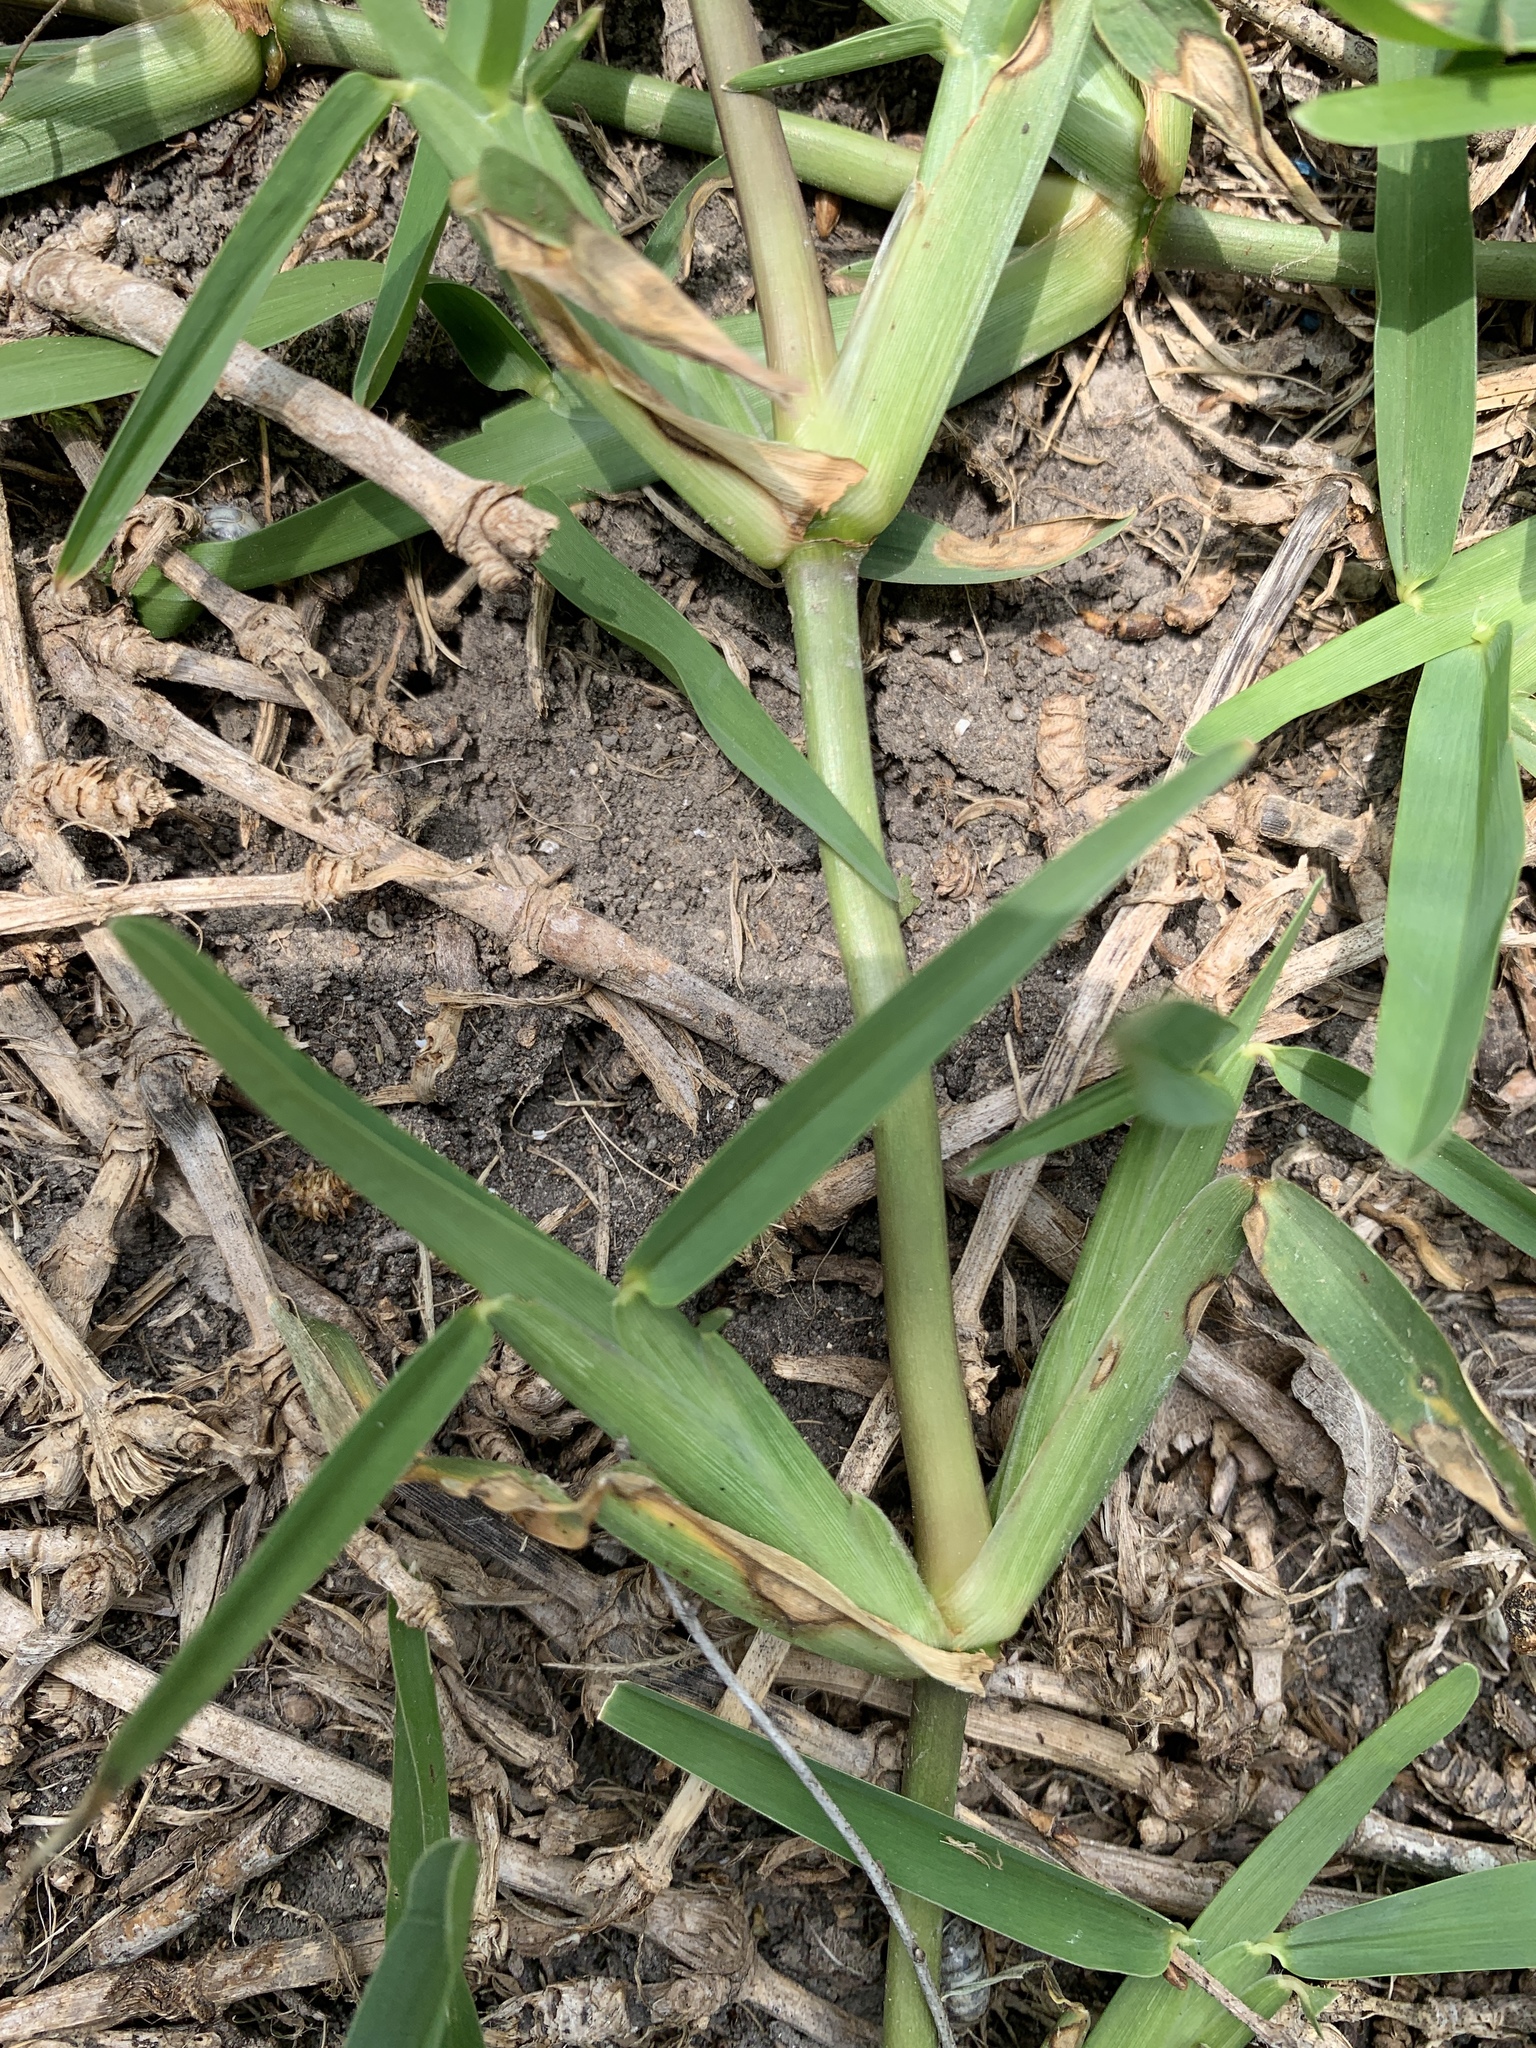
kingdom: Plantae
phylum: Tracheophyta
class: Liliopsida
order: Poales
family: Poaceae
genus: Stenotaphrum
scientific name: Stenotaphrum secundatum
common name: St. augustine grass
